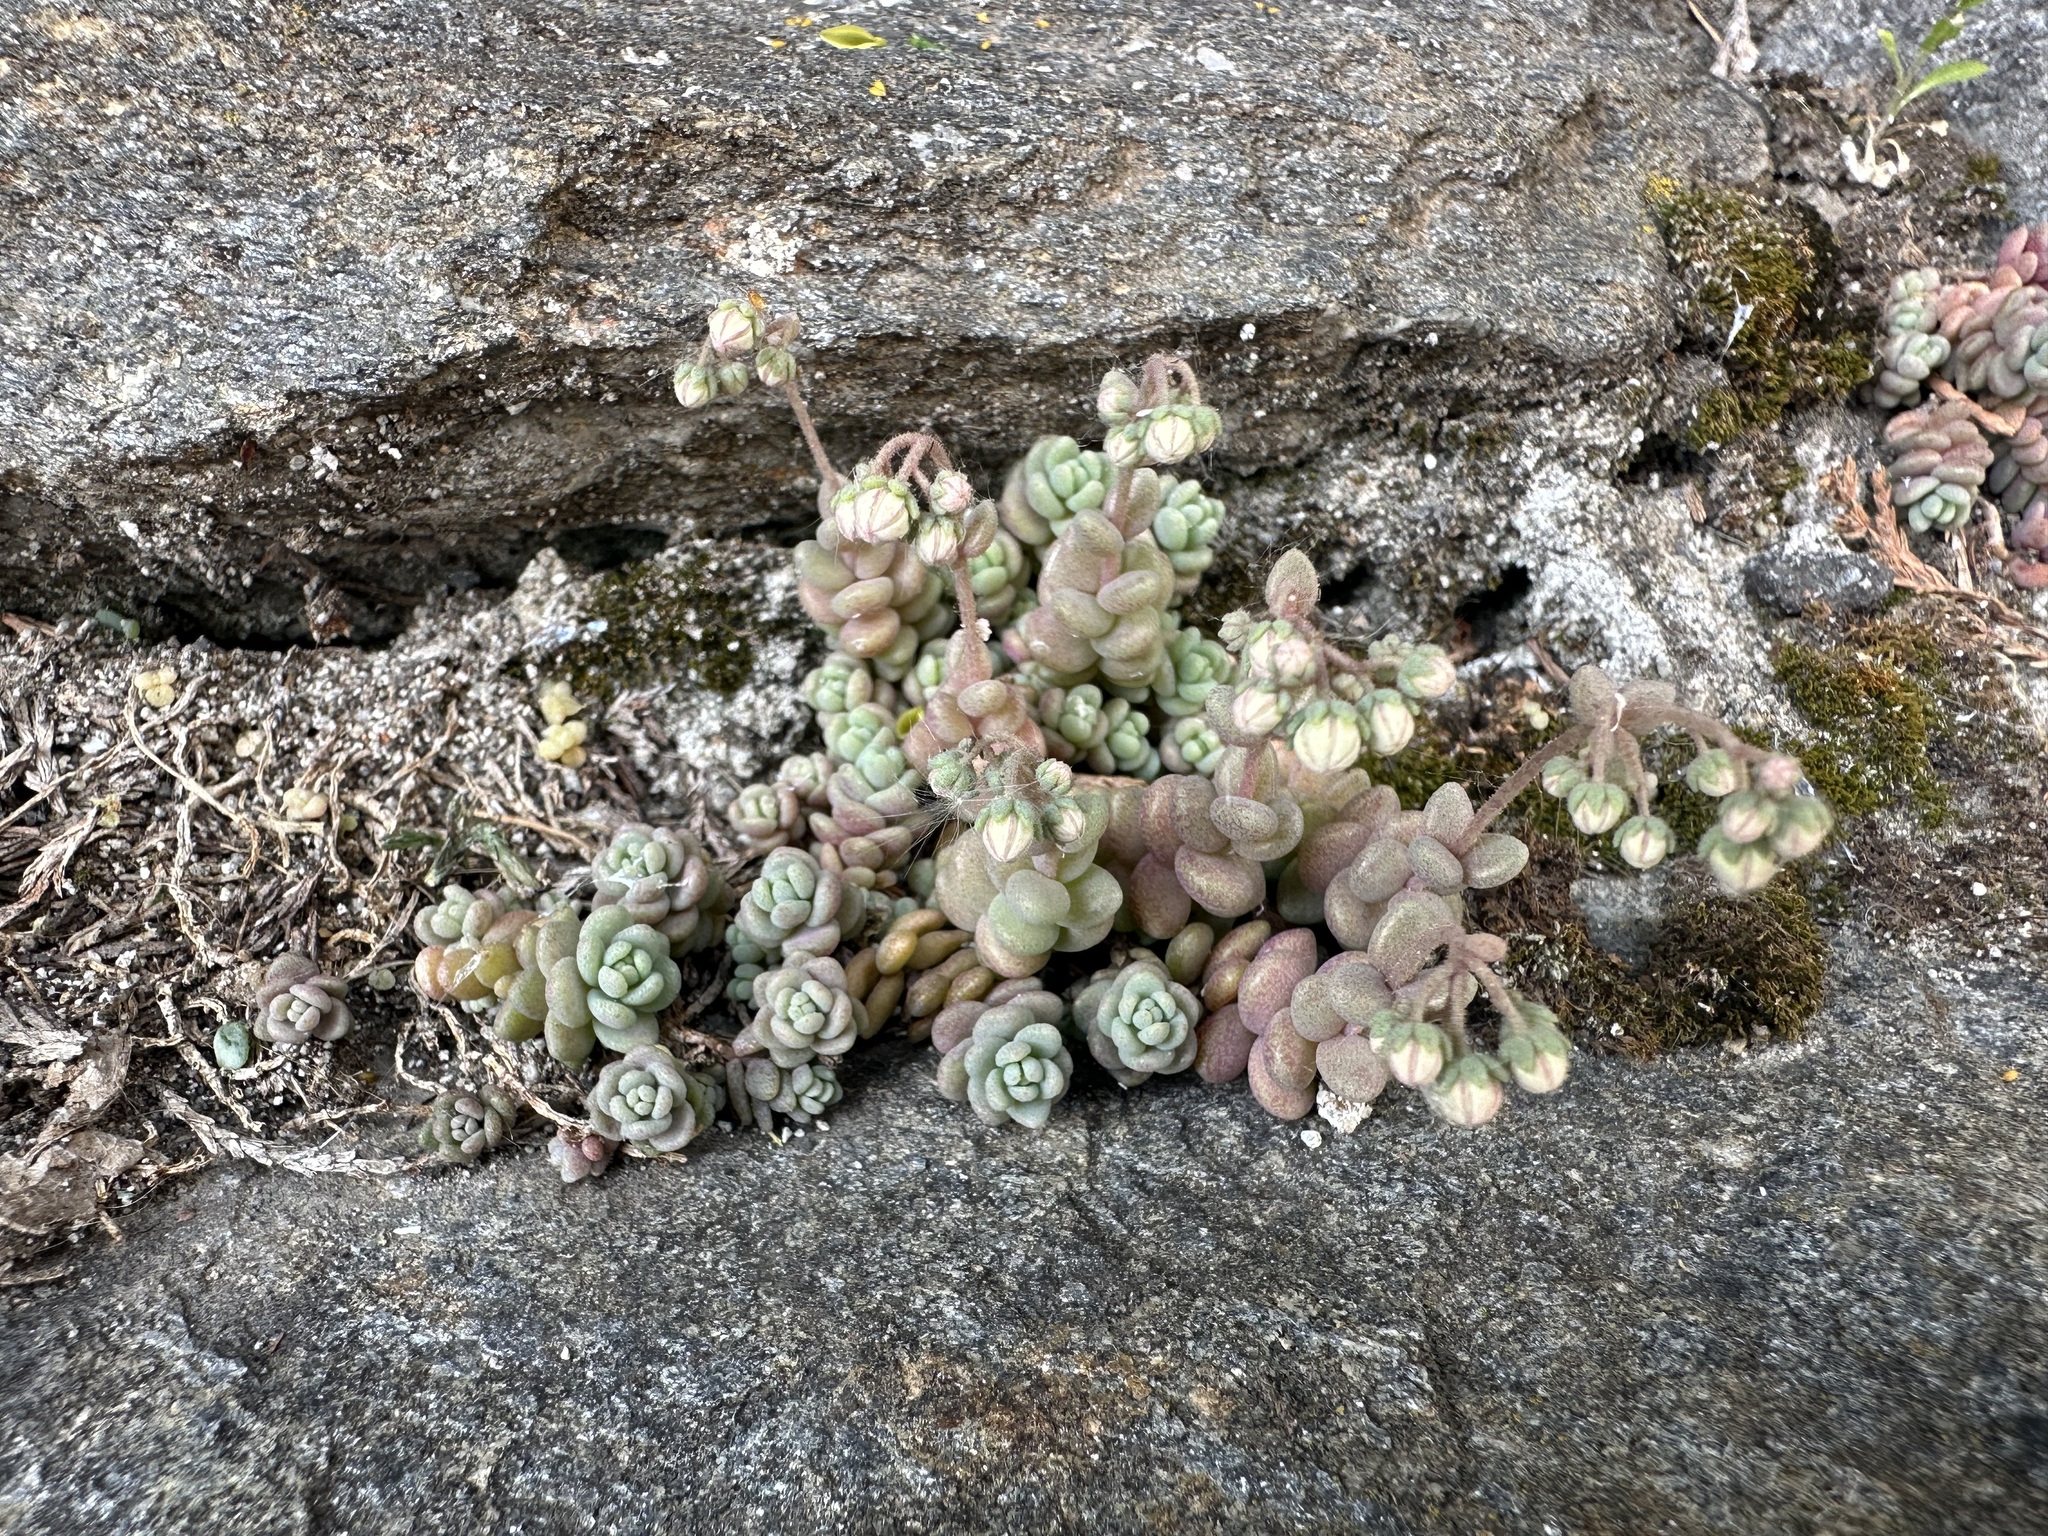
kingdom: Plantae
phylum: Tracheophyta
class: Magnoliopsida
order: Saxifragales
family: Crassulaceae
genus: Sedum
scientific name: Sedum dasyphyllum
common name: Thick-leaf stonecrop
